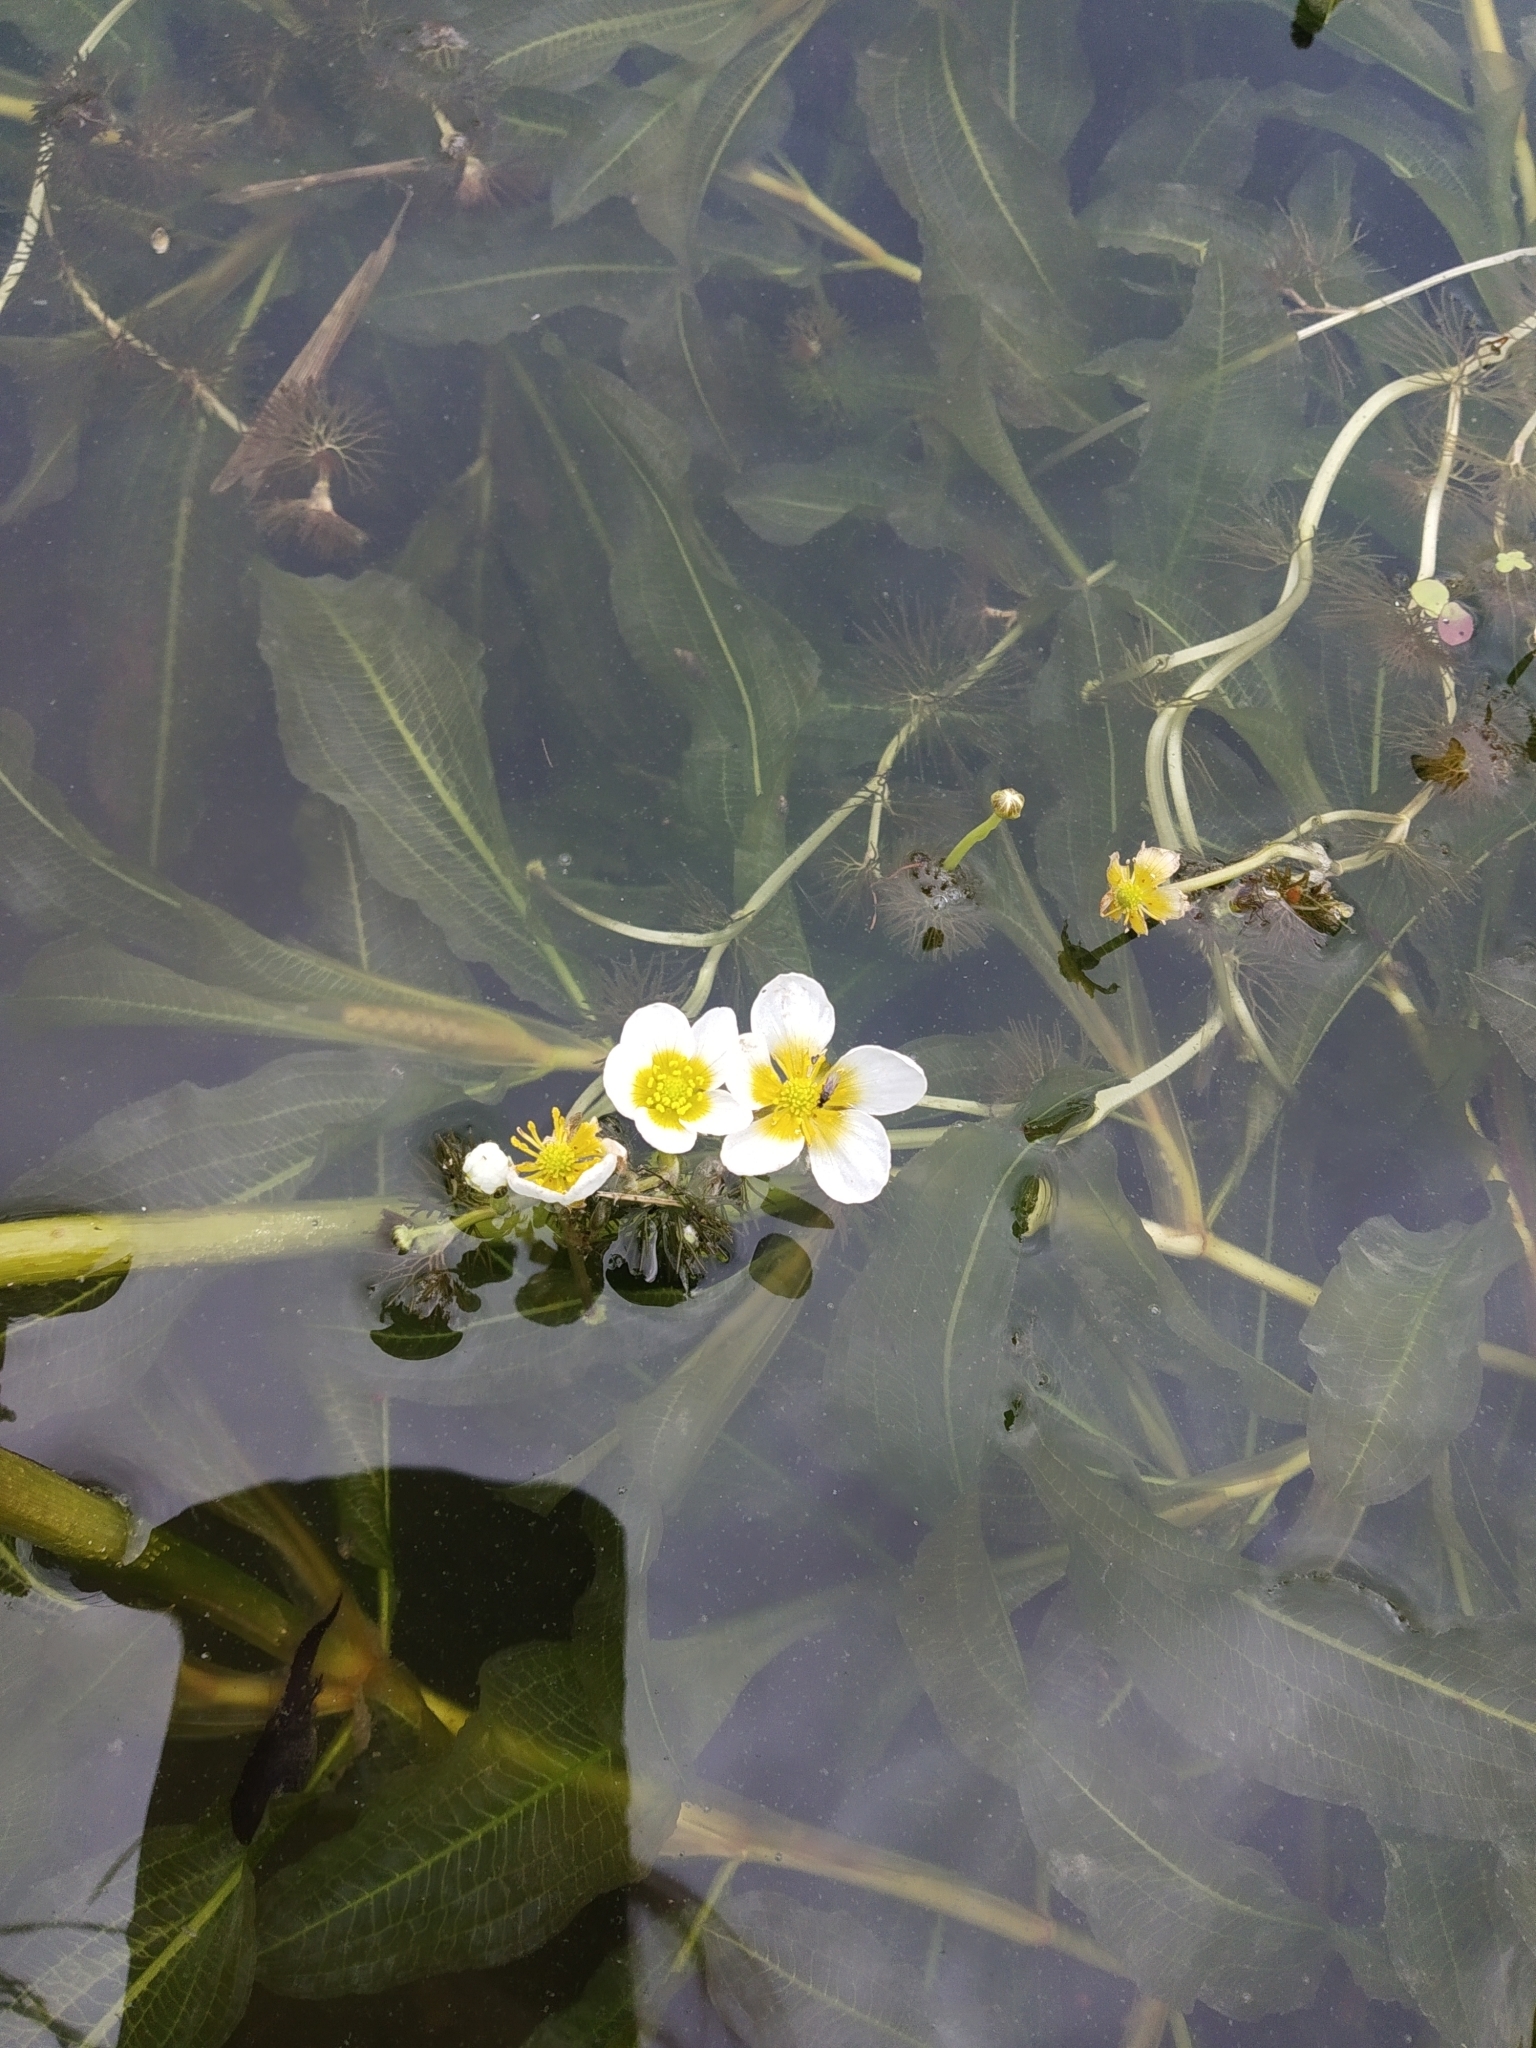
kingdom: Plantae
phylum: Tracheophyta
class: Magnoliopsida
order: Ranunculales
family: Ranunculaceae
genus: Ranunculus
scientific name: Ranunculus circinatus
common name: Fan-leaved water-crowfoot
